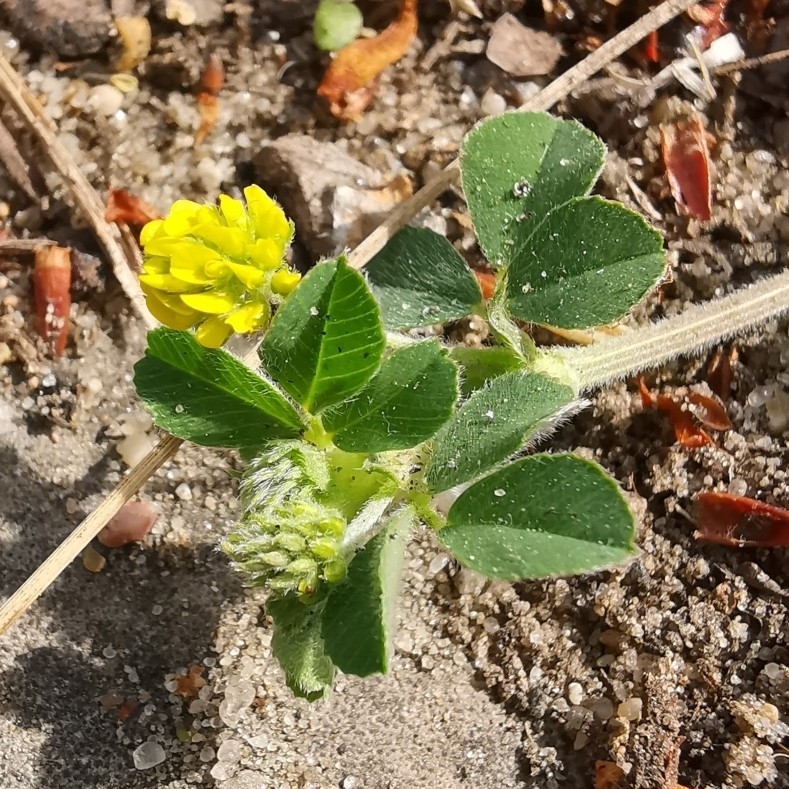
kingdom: Plantae
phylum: Tracheophyta
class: Magnoliopsida
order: Fabales
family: Fabaceae
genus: Medicago
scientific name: Medicago lupulina
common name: Black medick
